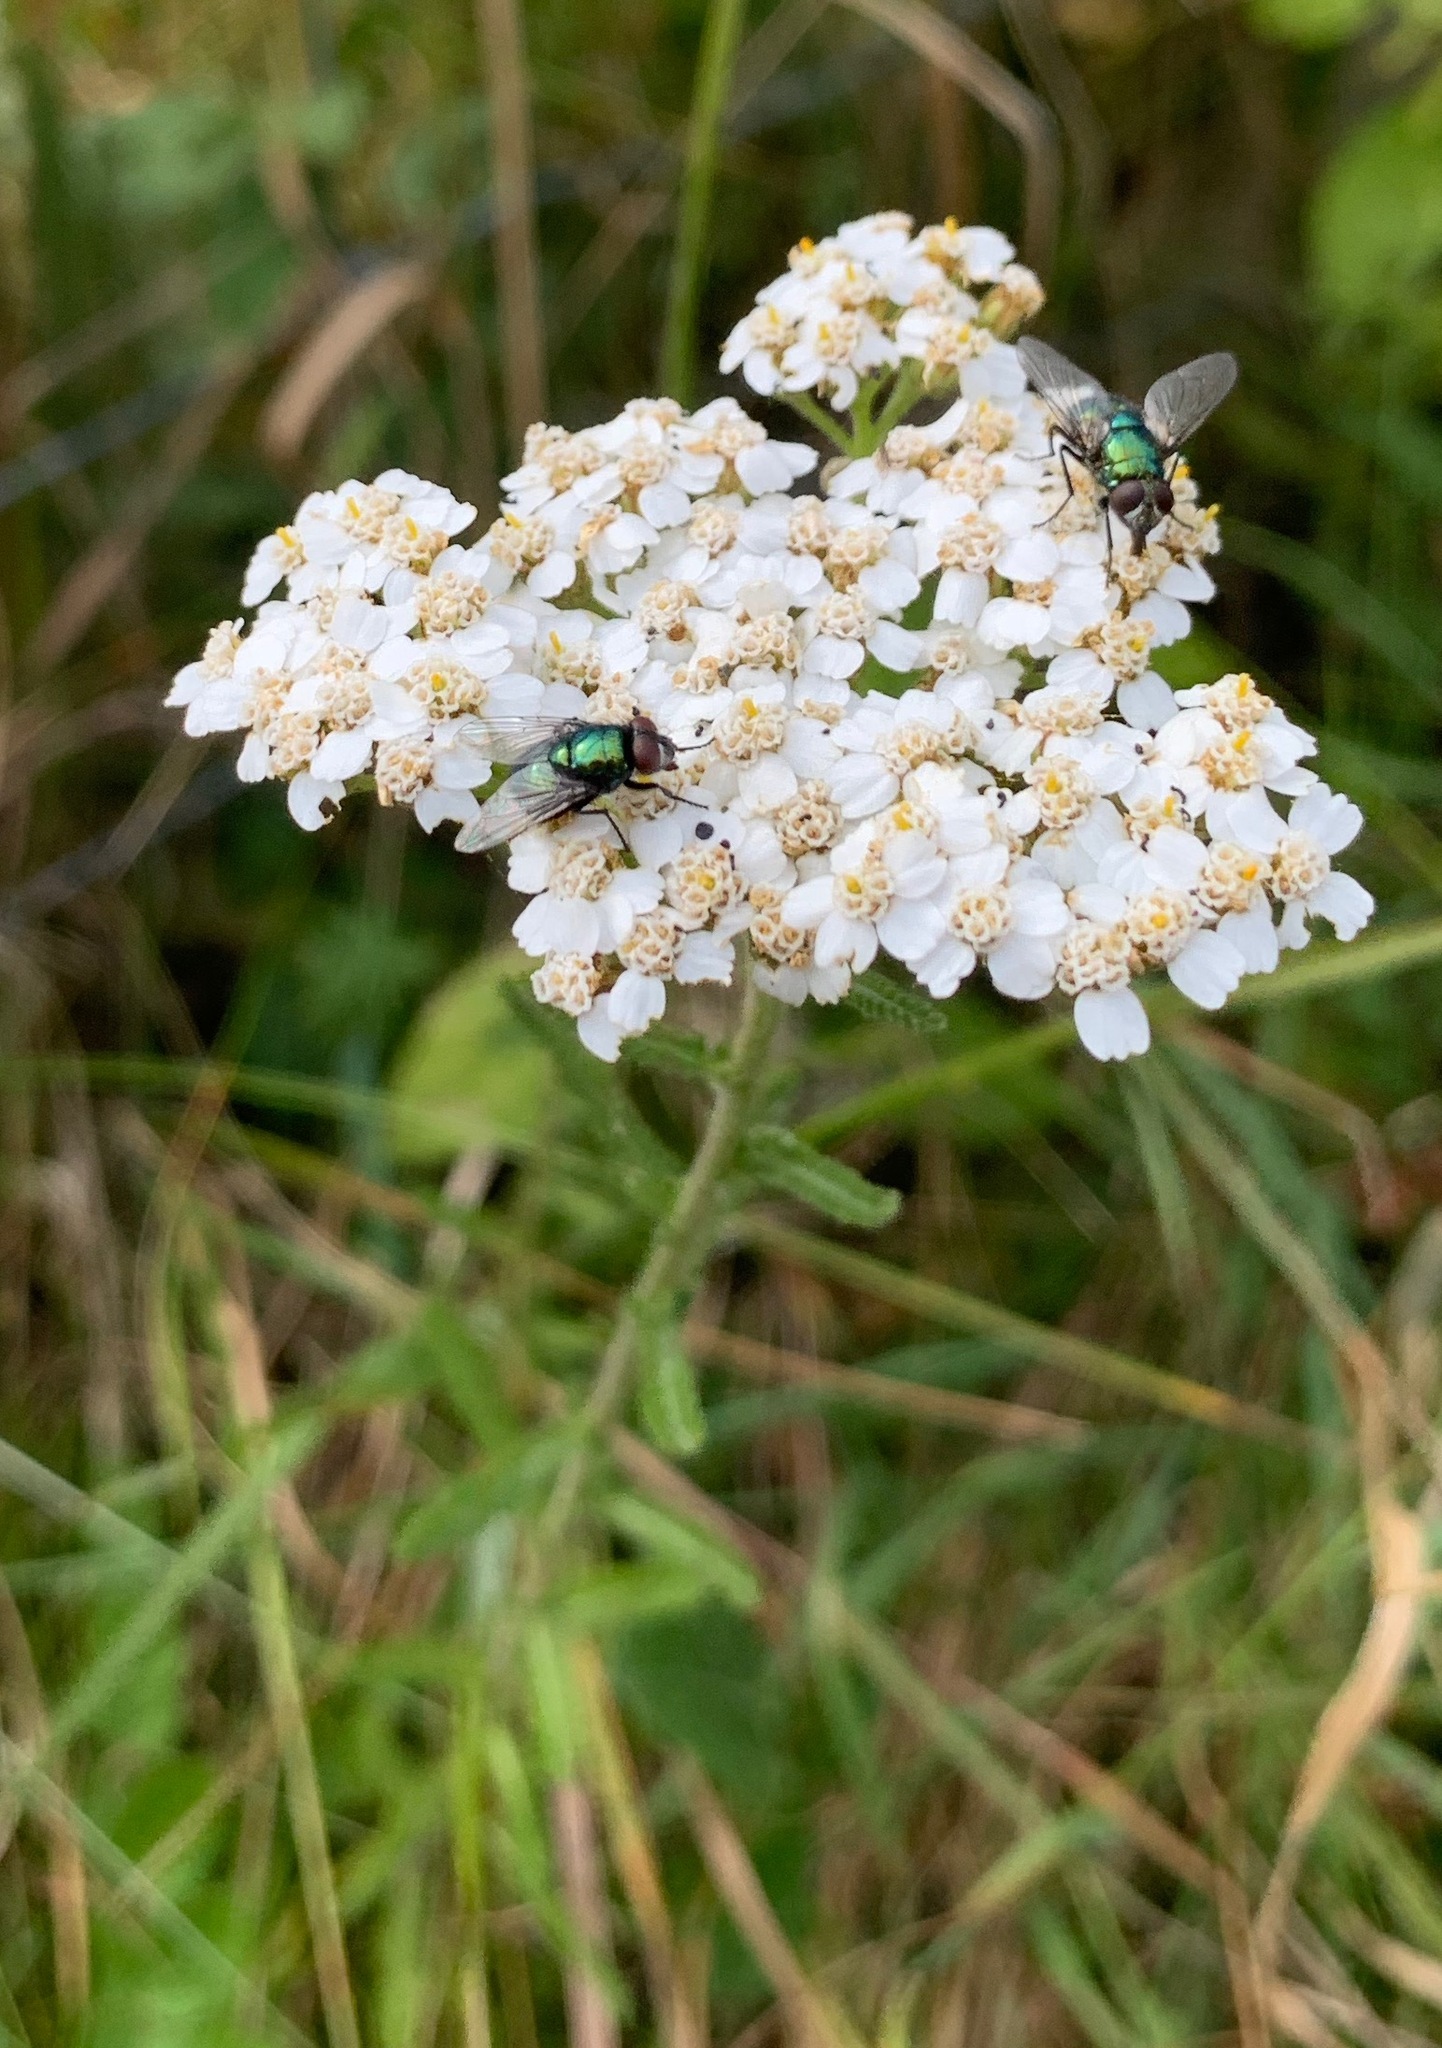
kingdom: Plantae
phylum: Tracheophyta
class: Magnoliopsida
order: Asterales
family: Asteraceae
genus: Achillea
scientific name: Achillea millefolium
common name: Yarrow
